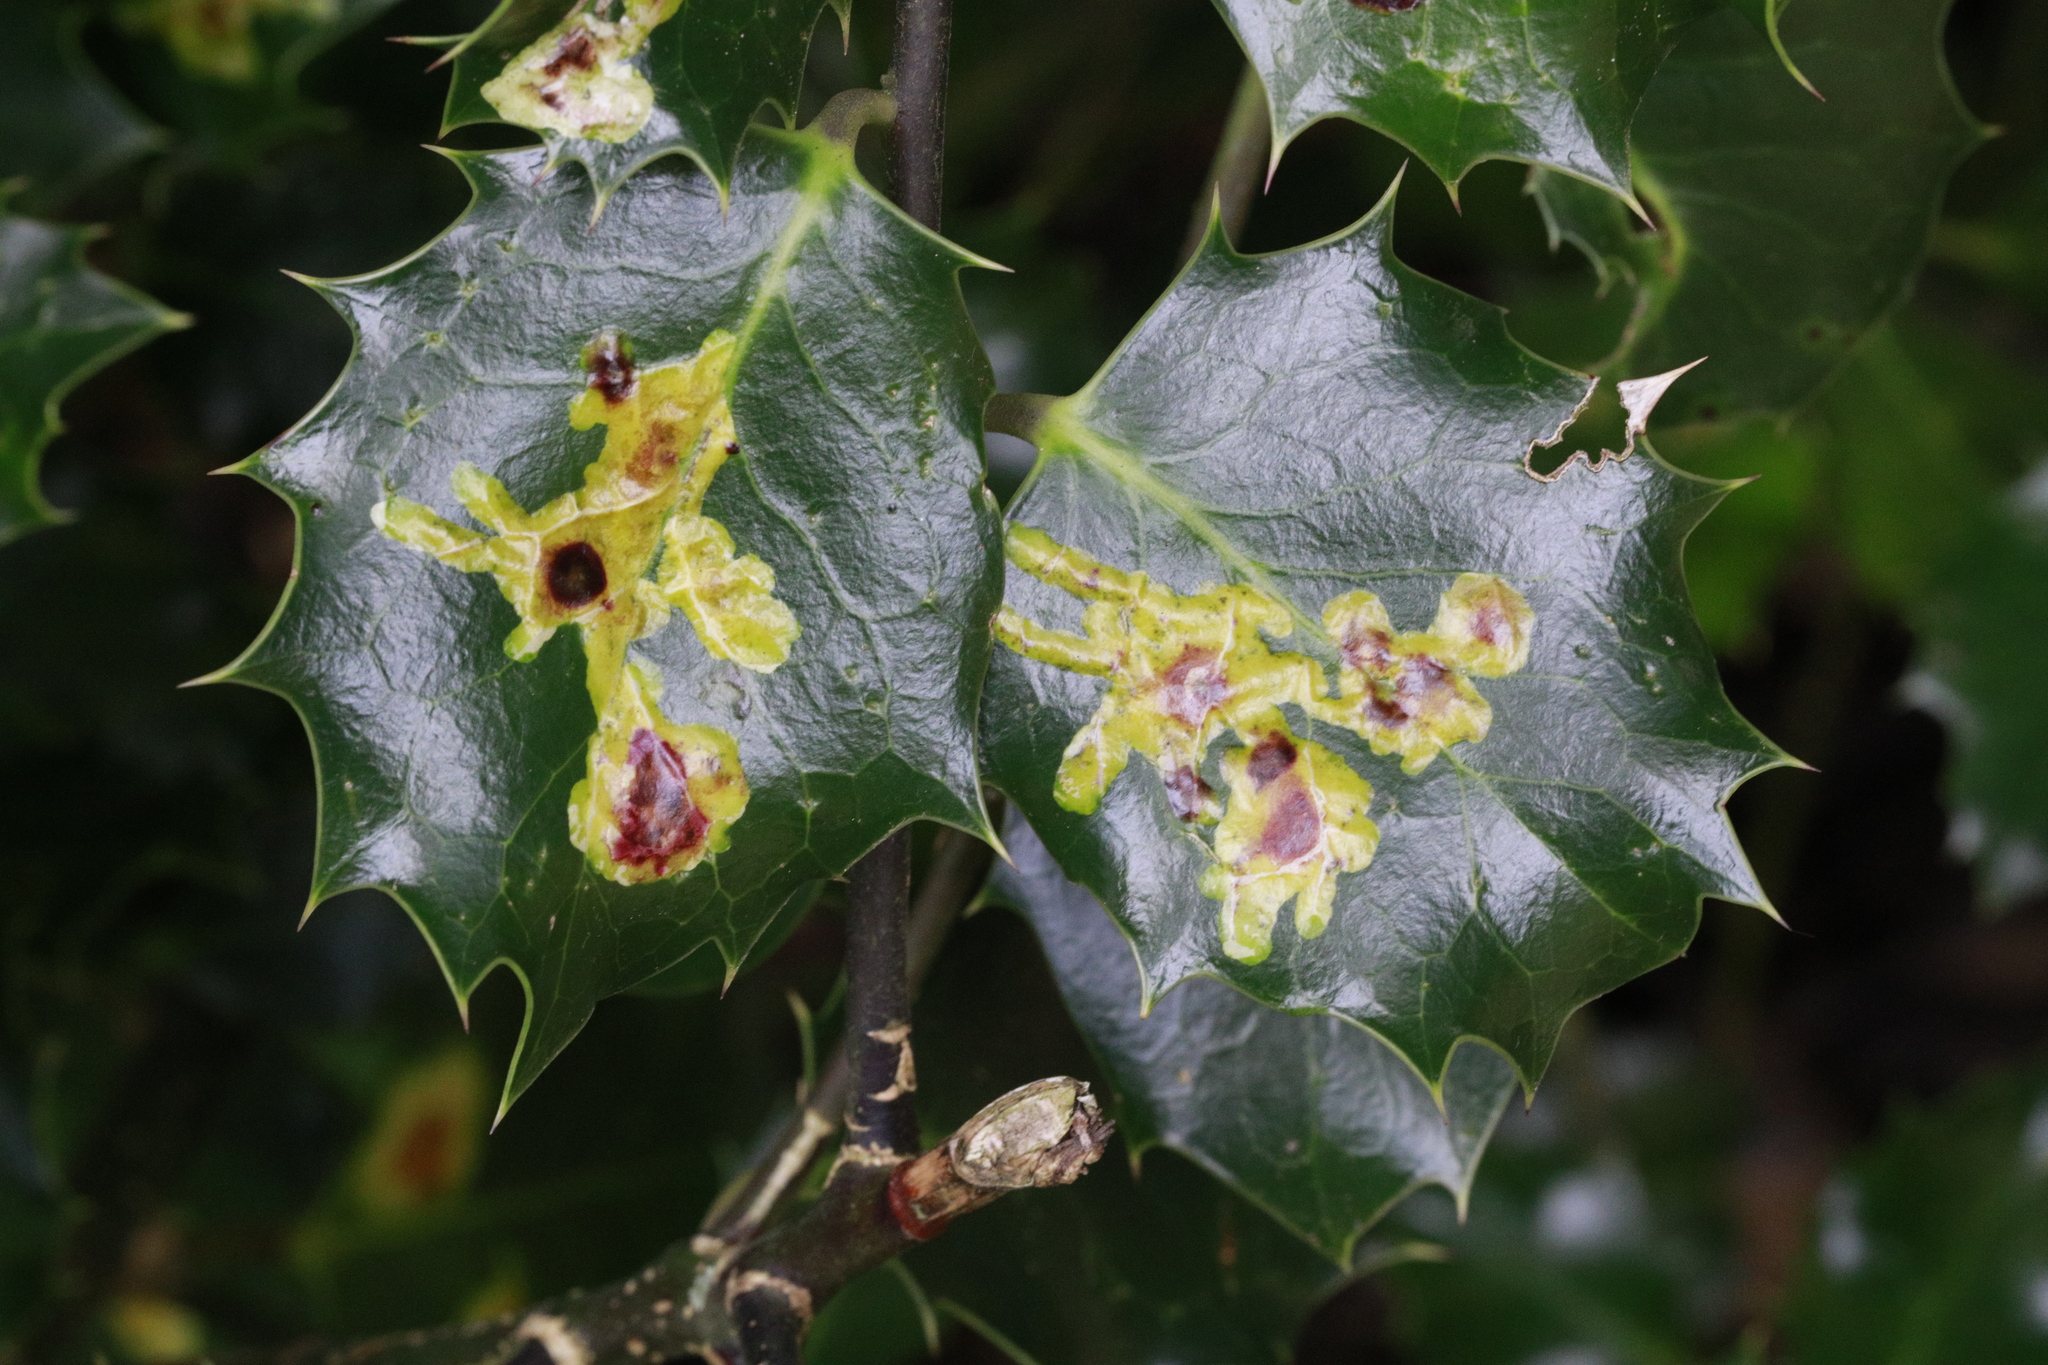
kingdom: Animalia
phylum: Arthropoda
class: Insecta
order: Diptera
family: Agromyzidae
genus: Phytomyza
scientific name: Phytomyza ilicis
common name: Holly leafminer
